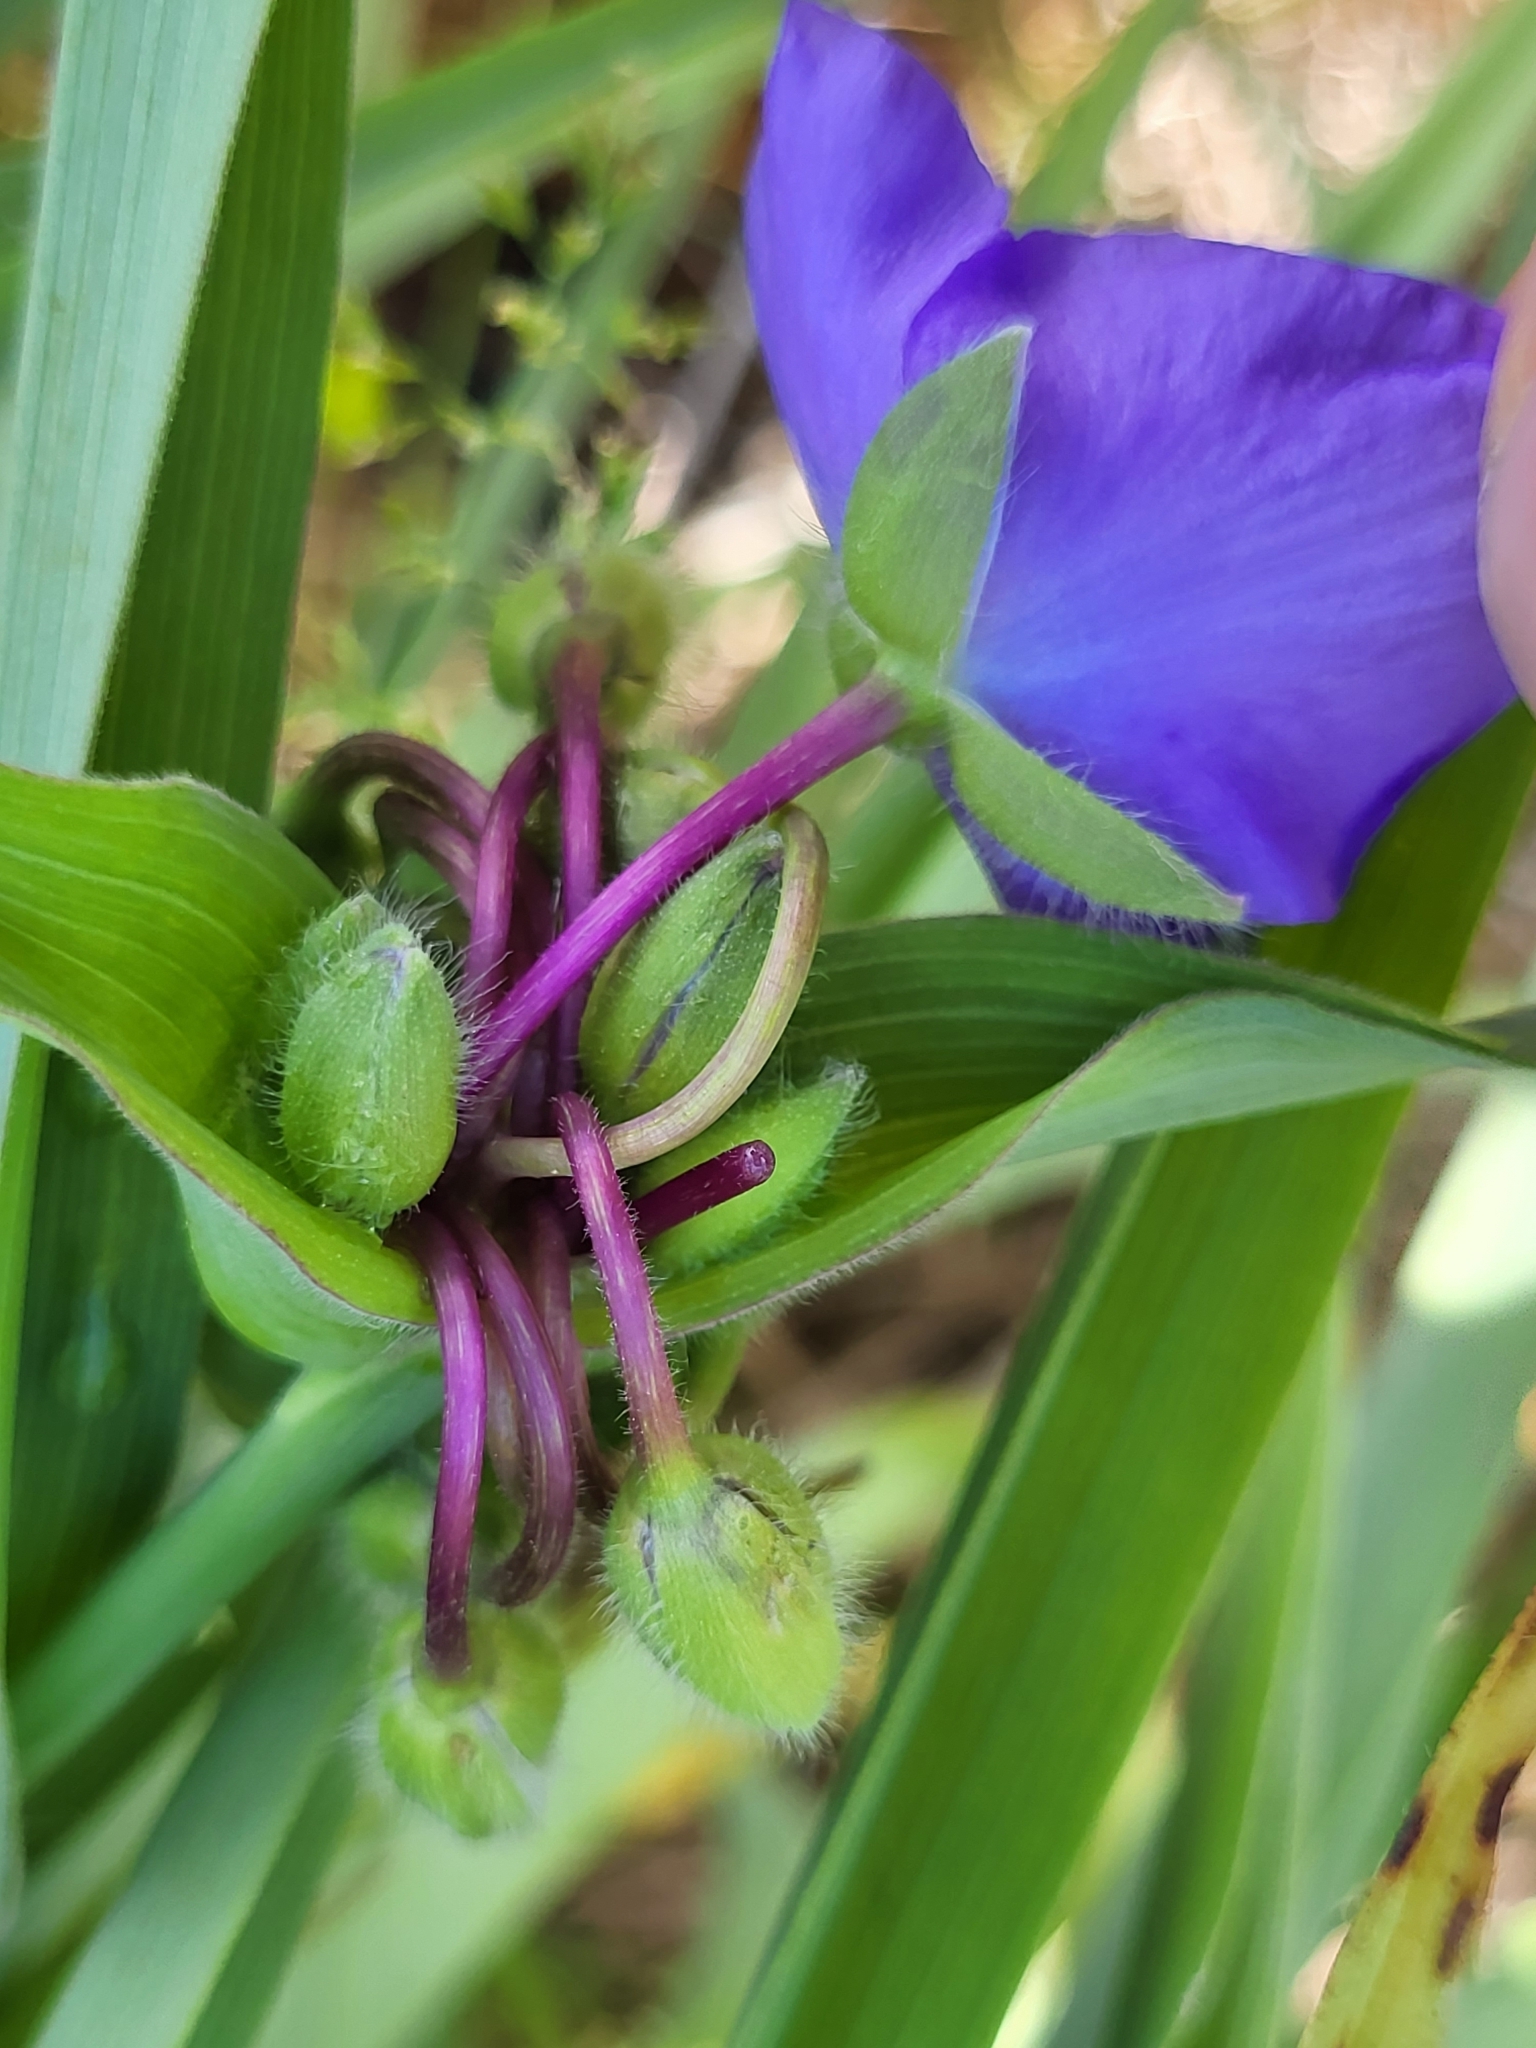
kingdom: Plantae
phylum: Tracheophyta
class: Liliopsida
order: Commelinales
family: Commelinaceae
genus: Tradescantia
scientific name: Tradescantia virginiana
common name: Spiderwort
